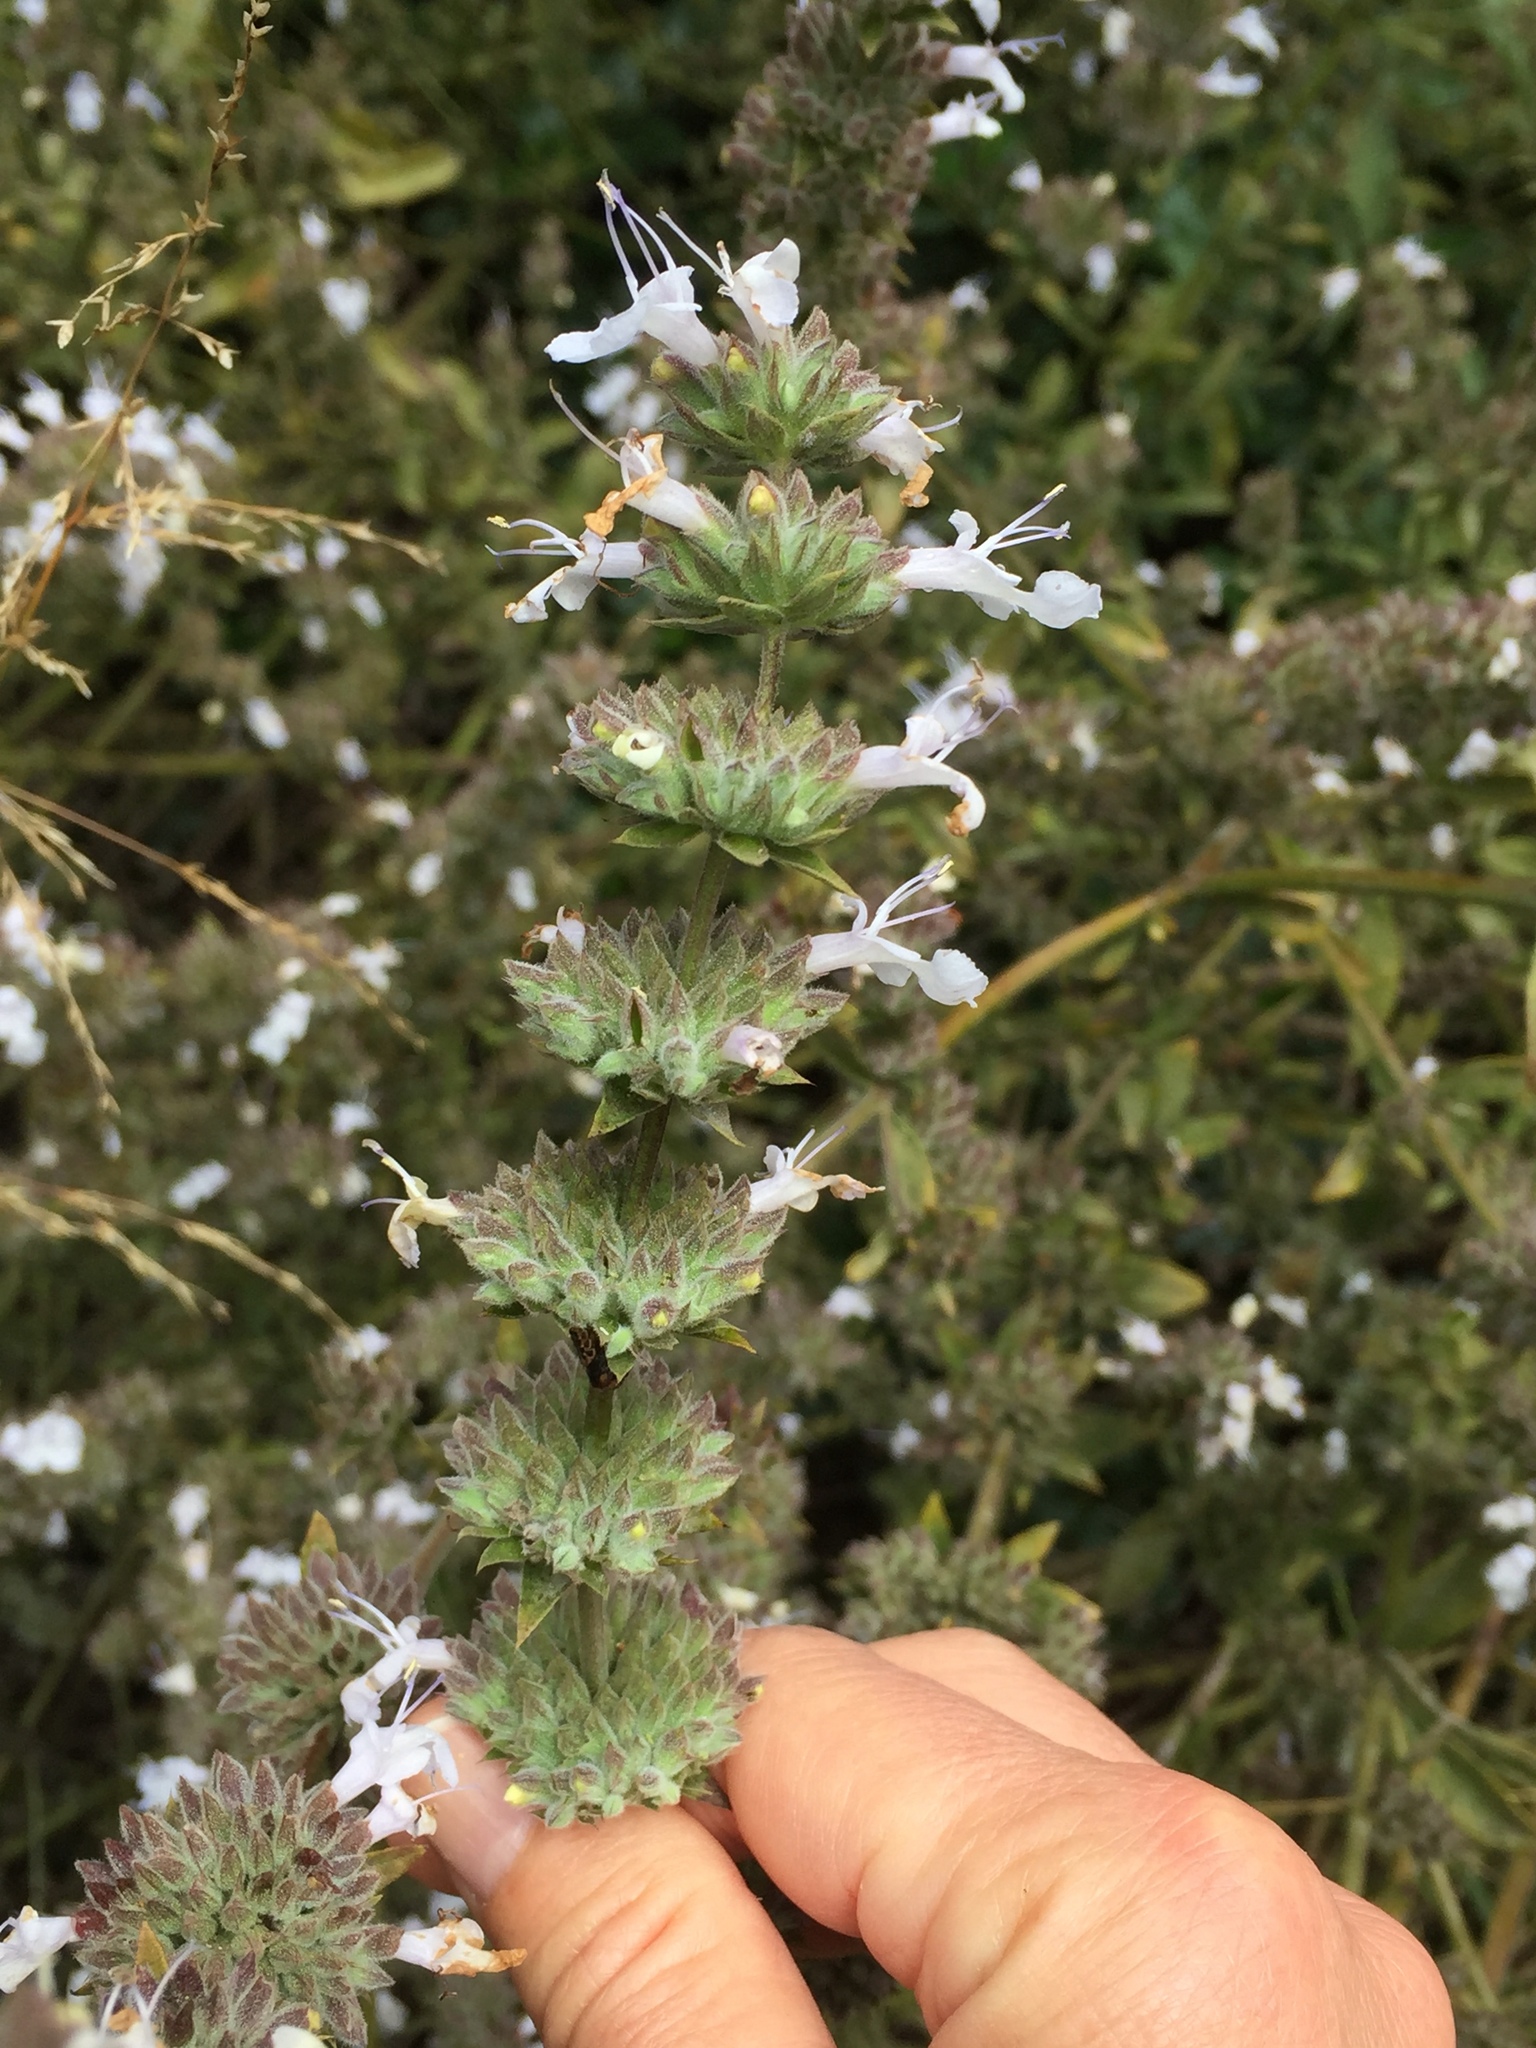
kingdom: Plantae
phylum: Tracheophyta
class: Magnoliopsida
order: Lamiales
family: Lamiaceae
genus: Salvia
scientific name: Salvia mellifera
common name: Black sage
